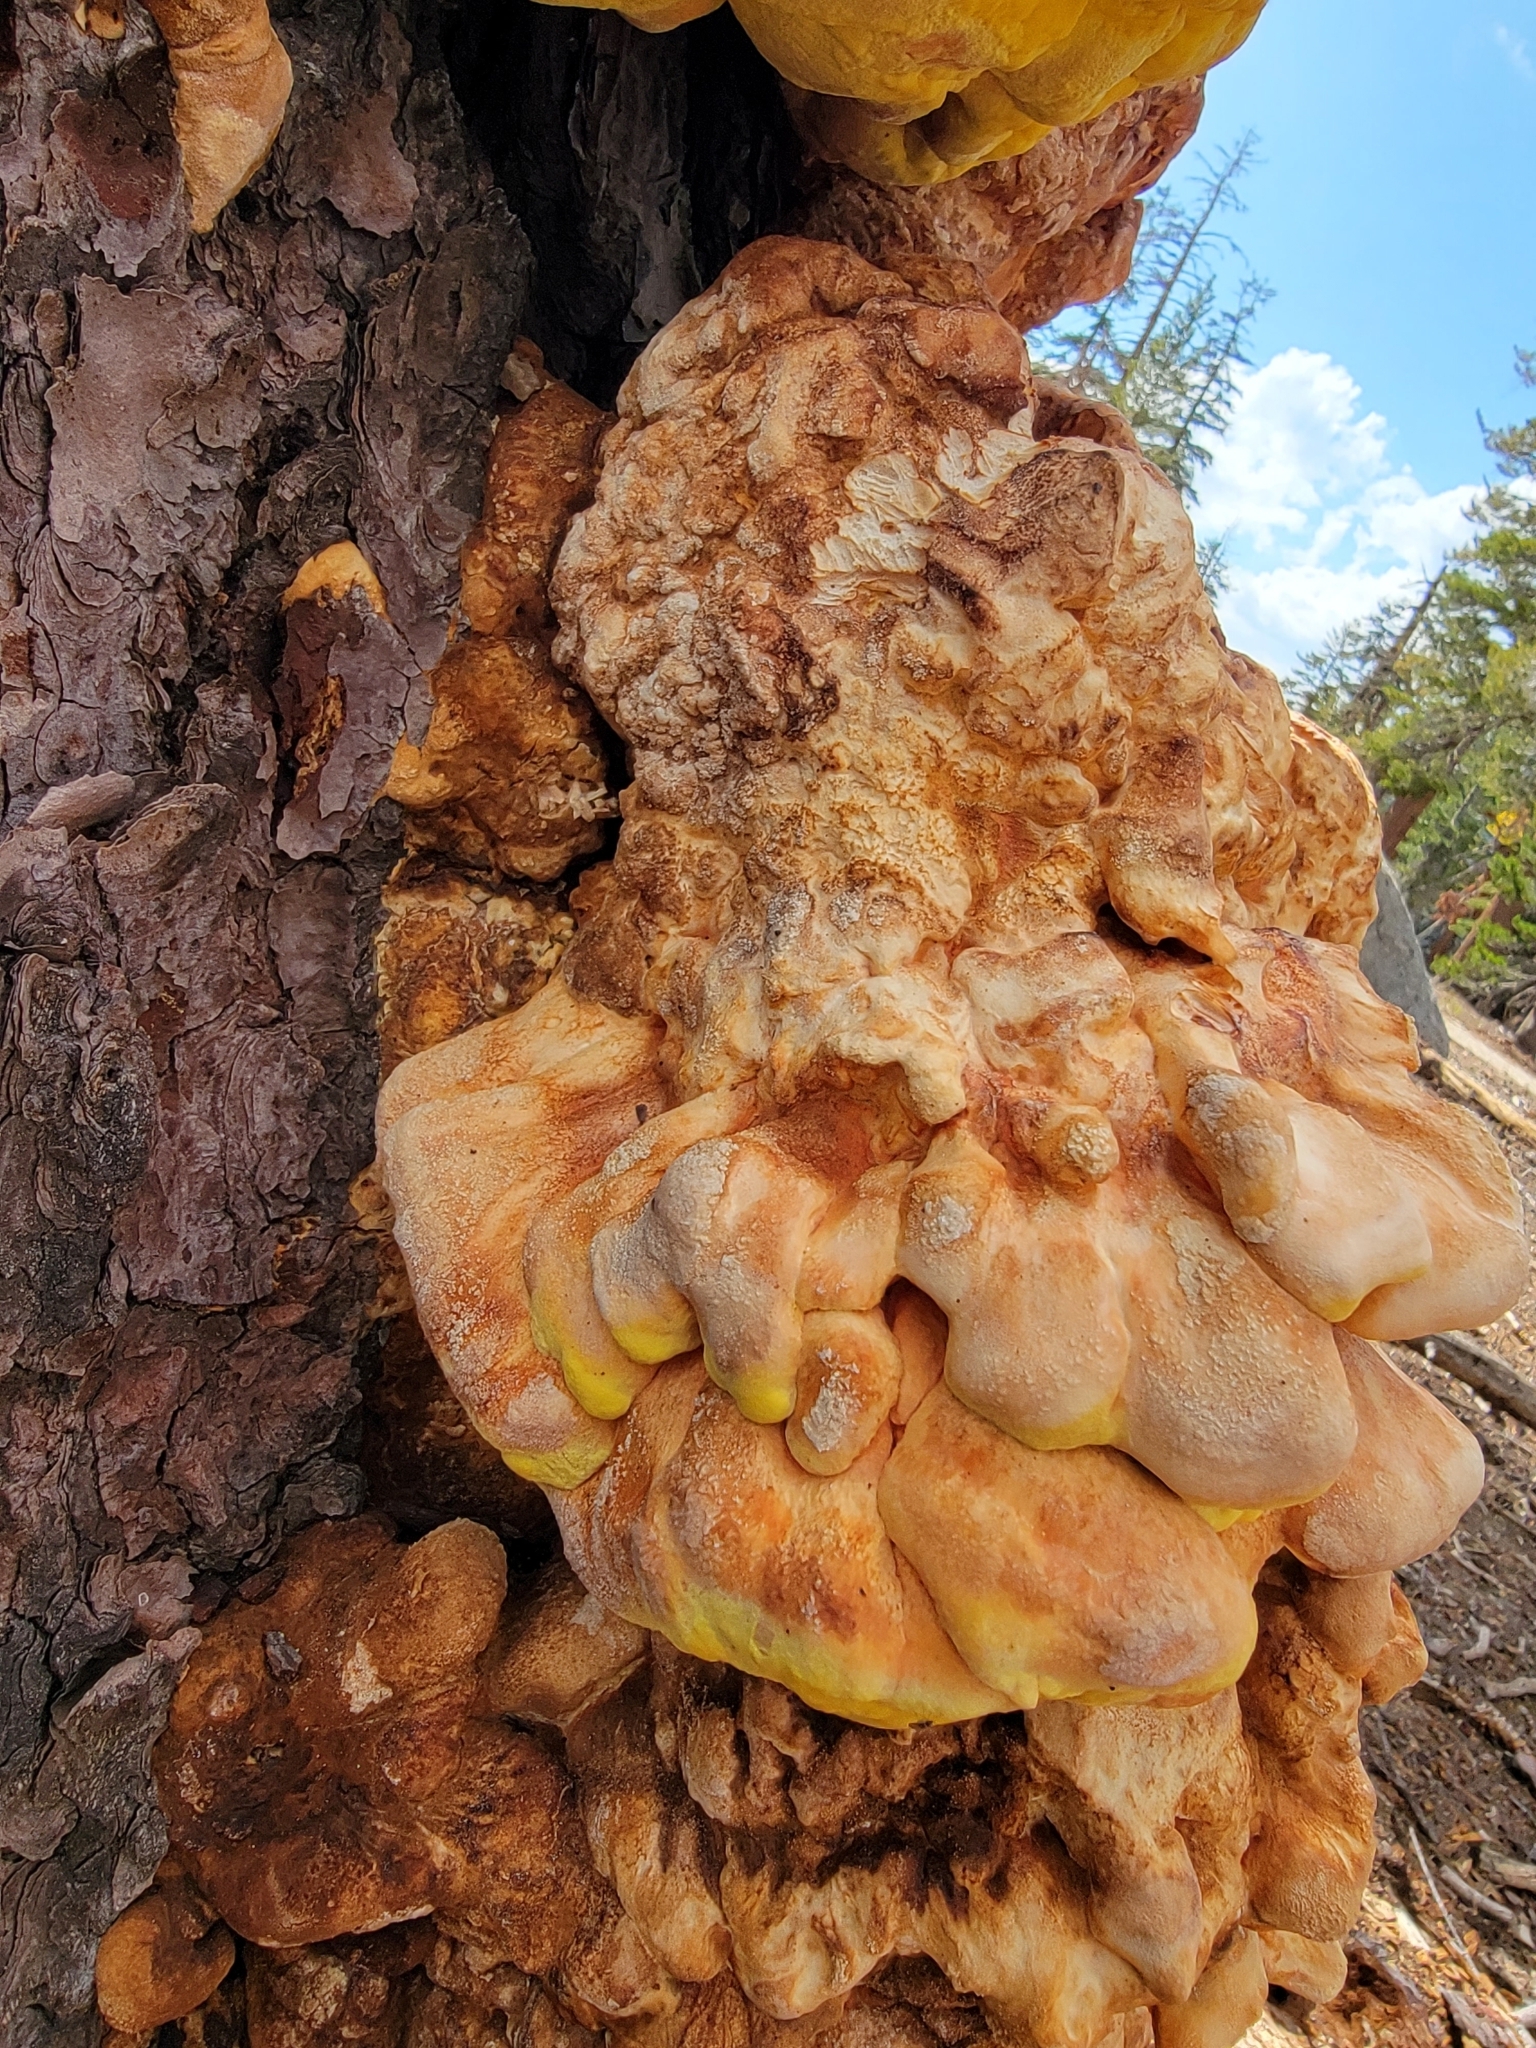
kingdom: Fungi
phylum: Basidiomycota
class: Agaricomycetes
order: Polyporales
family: Laetiporaceae
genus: Laetiporus
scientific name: Laetiporus conifericola
